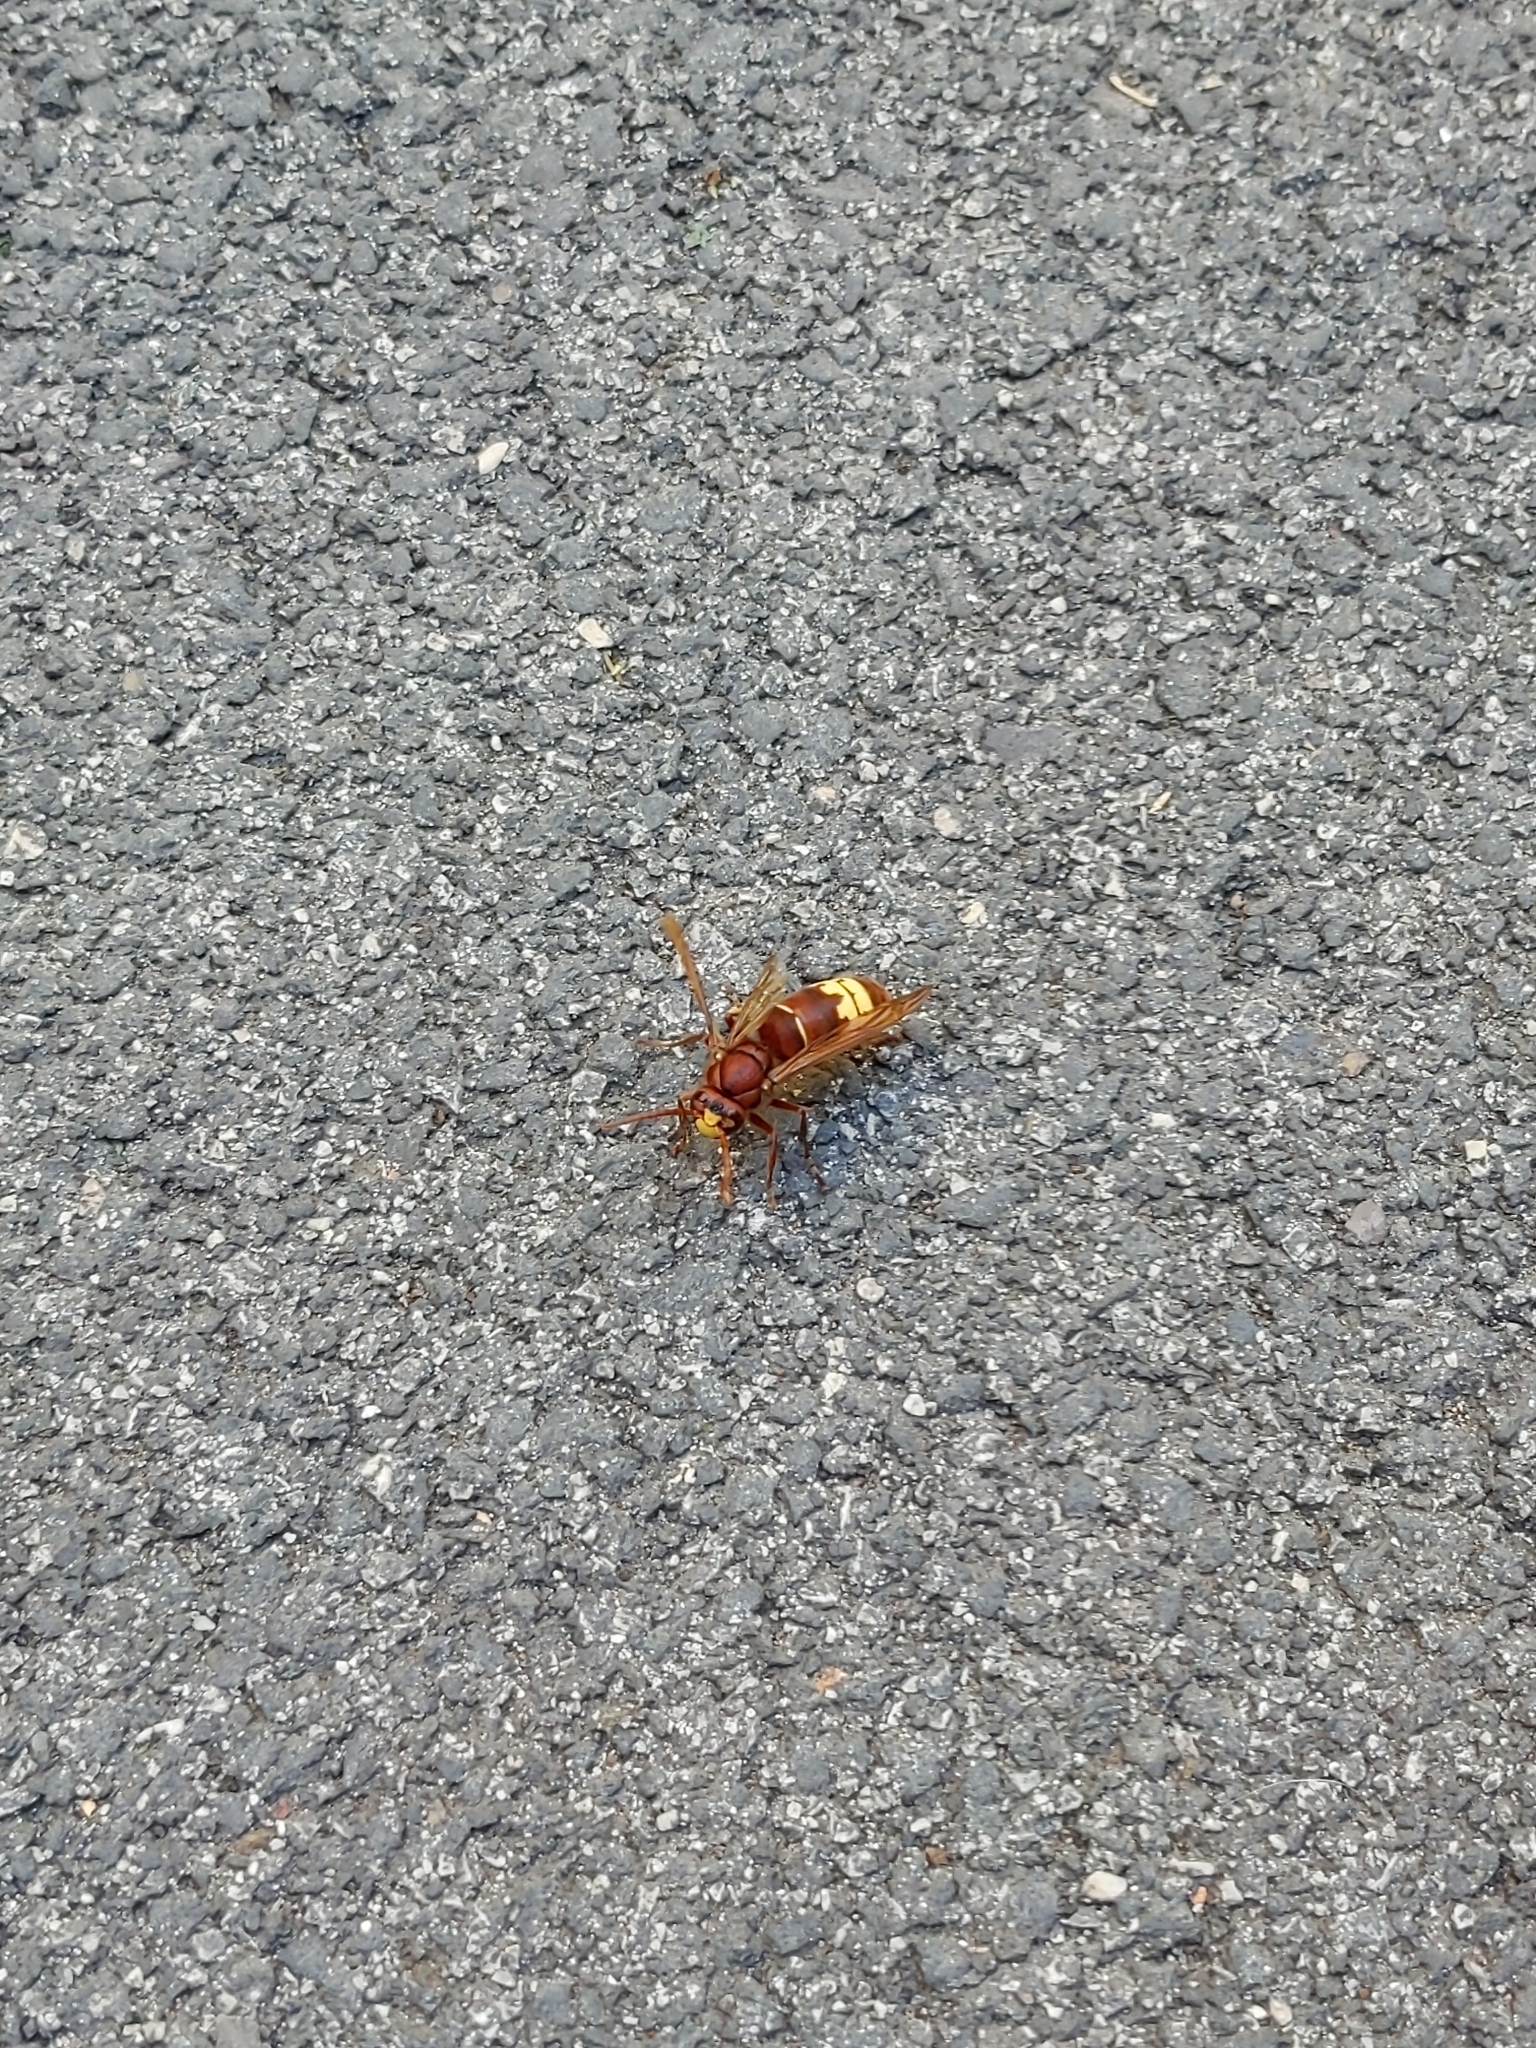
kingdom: Animalia
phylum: Arthropoda
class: Insecta
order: Hymenoptera
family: Vespidae
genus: Vespa
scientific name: Vespa orientalis
